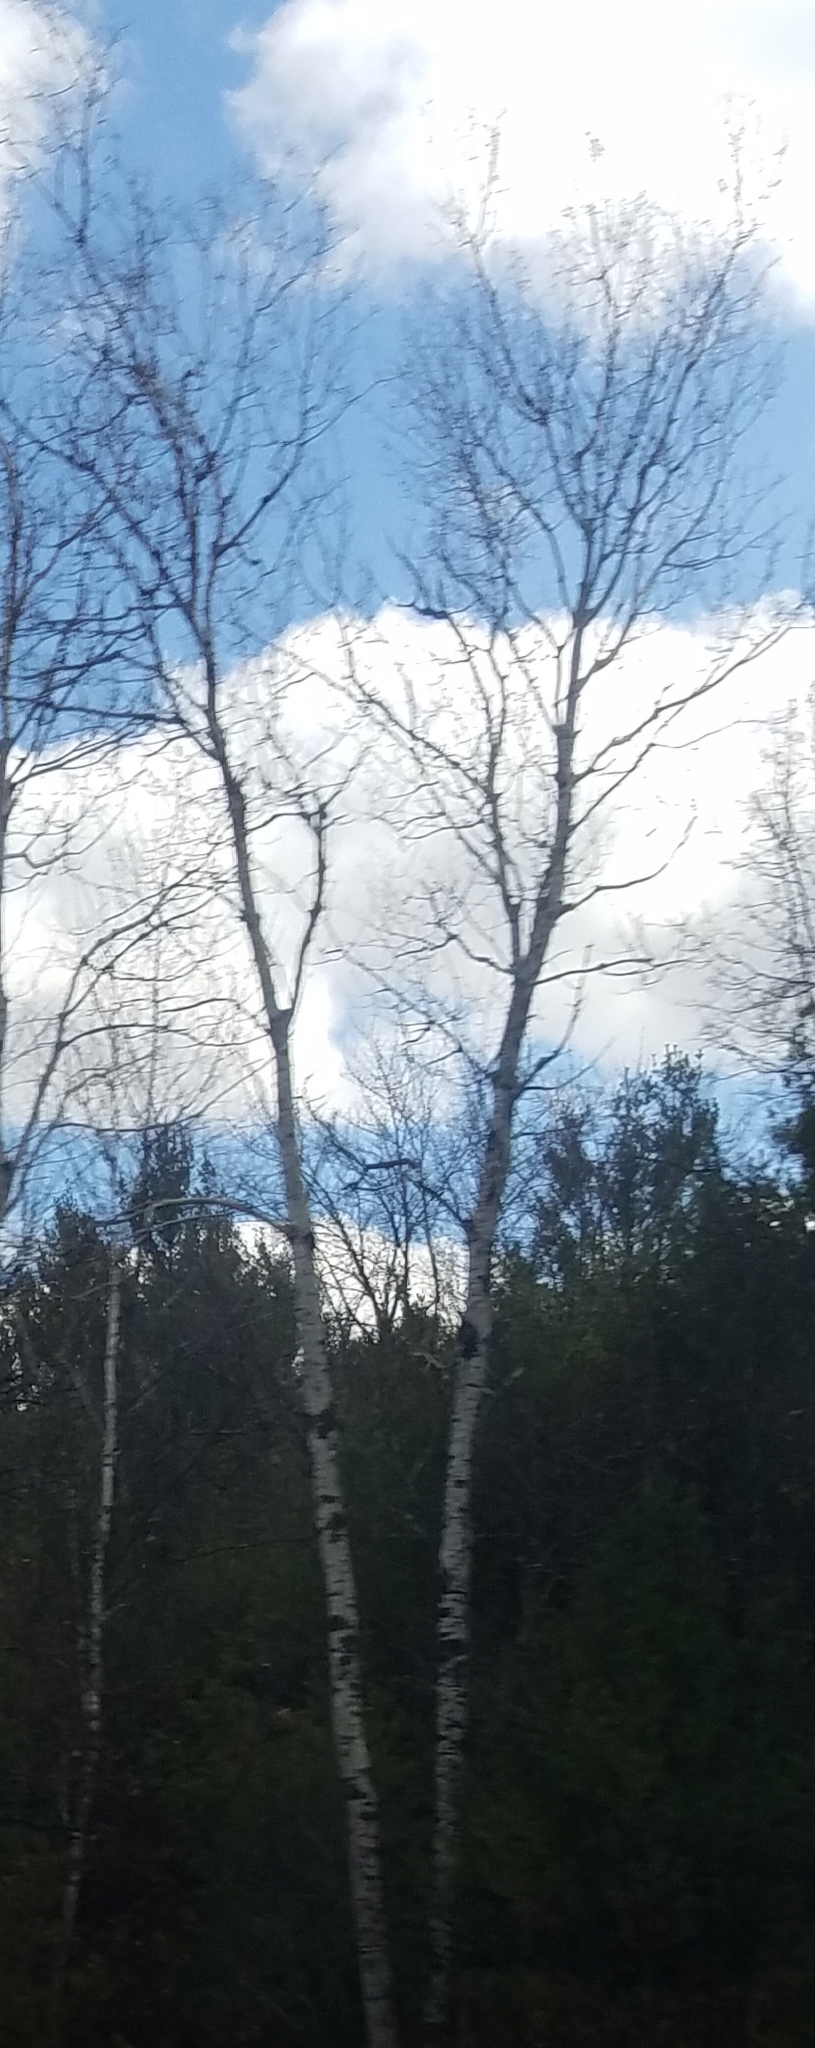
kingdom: Plantae
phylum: Tracheophyta
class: Magnoliopsida
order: Malpighiales
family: Salicaceae
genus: Populus
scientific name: Populus tremuloides
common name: Quaking aspen
